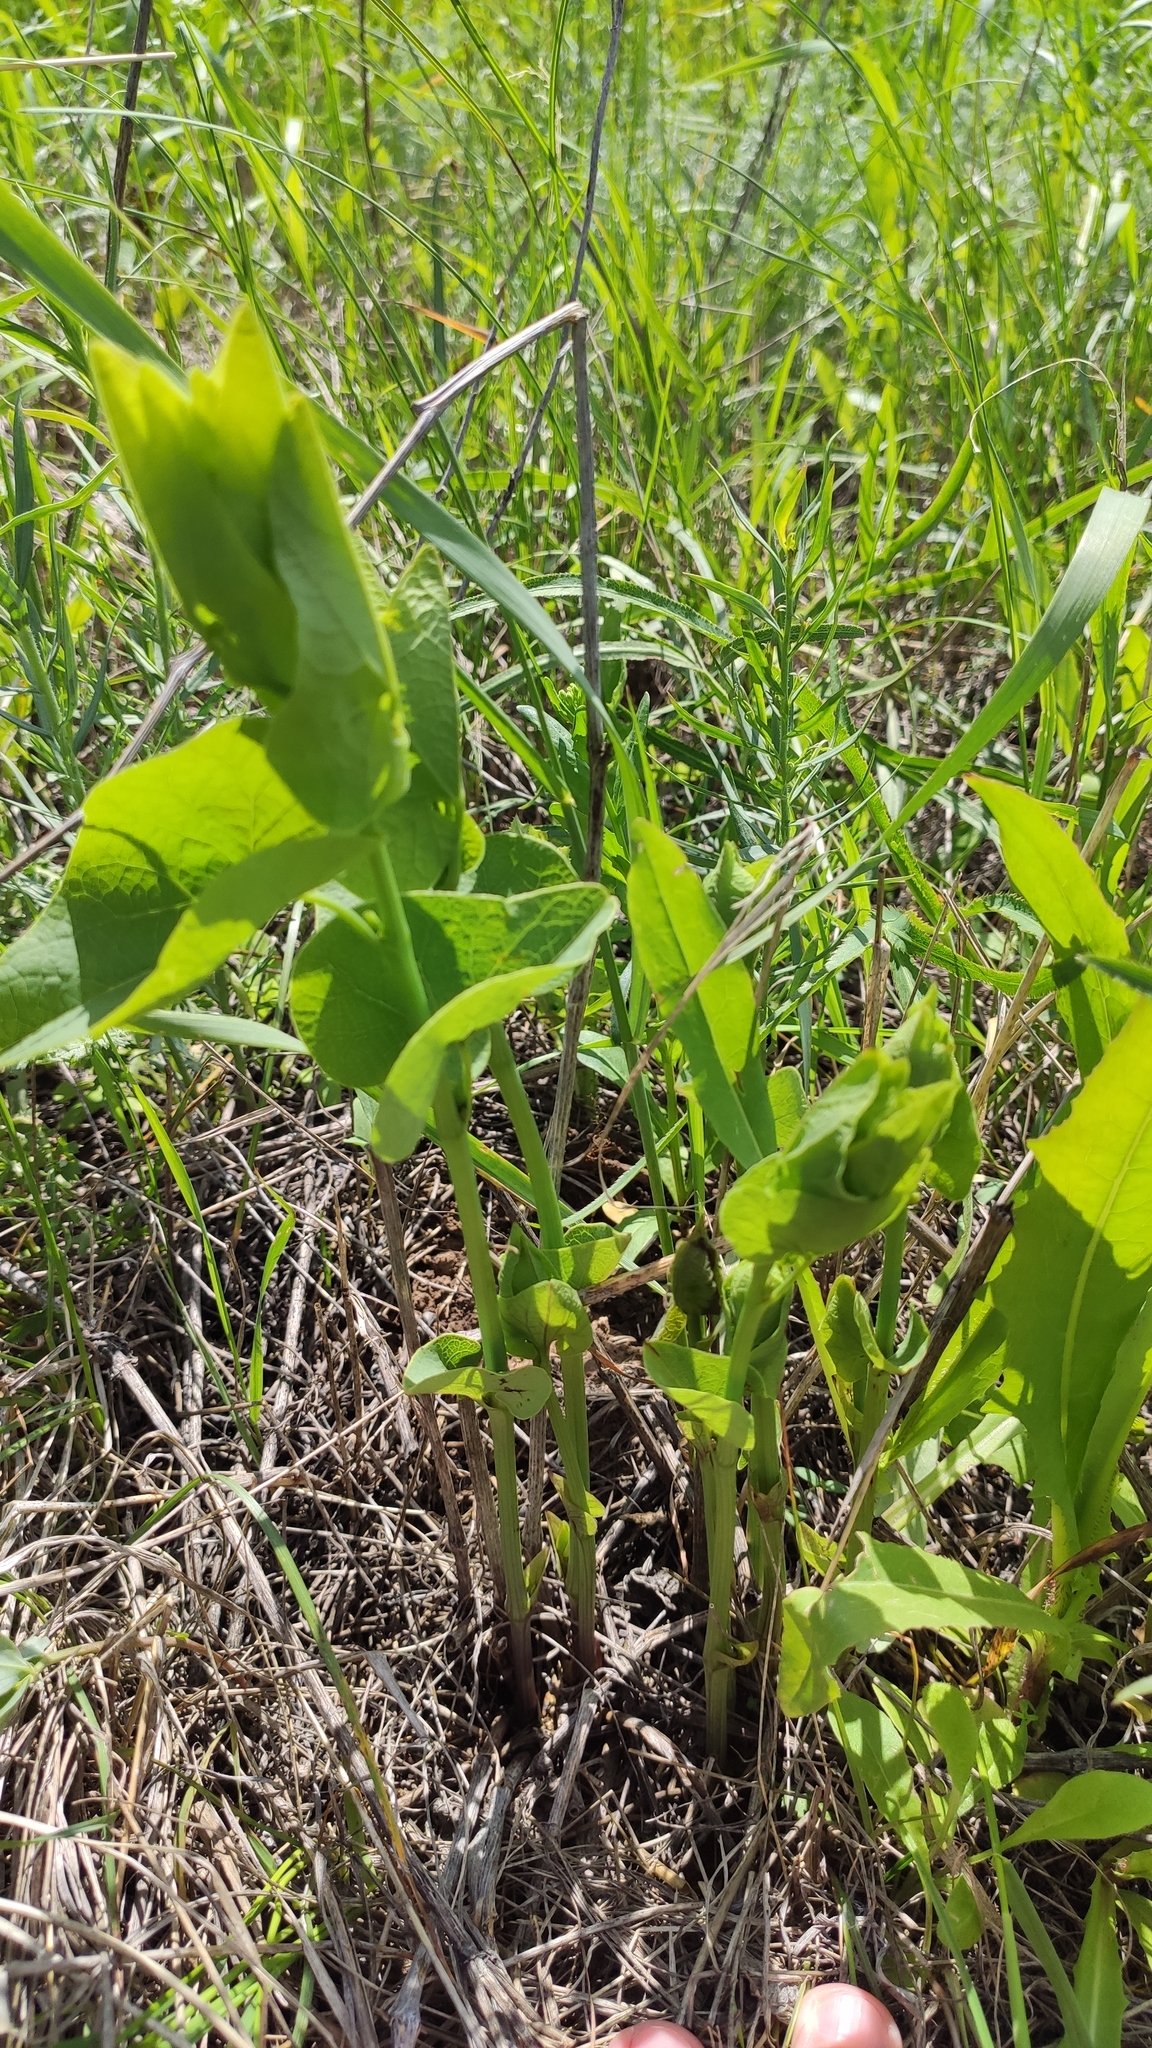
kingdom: Plantae
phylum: Tracheophyta
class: Magnoliopsida
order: Piperales
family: Aristolochiaceae
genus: Aristolochia
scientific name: Aristolochia clematitis
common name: Birthwort
